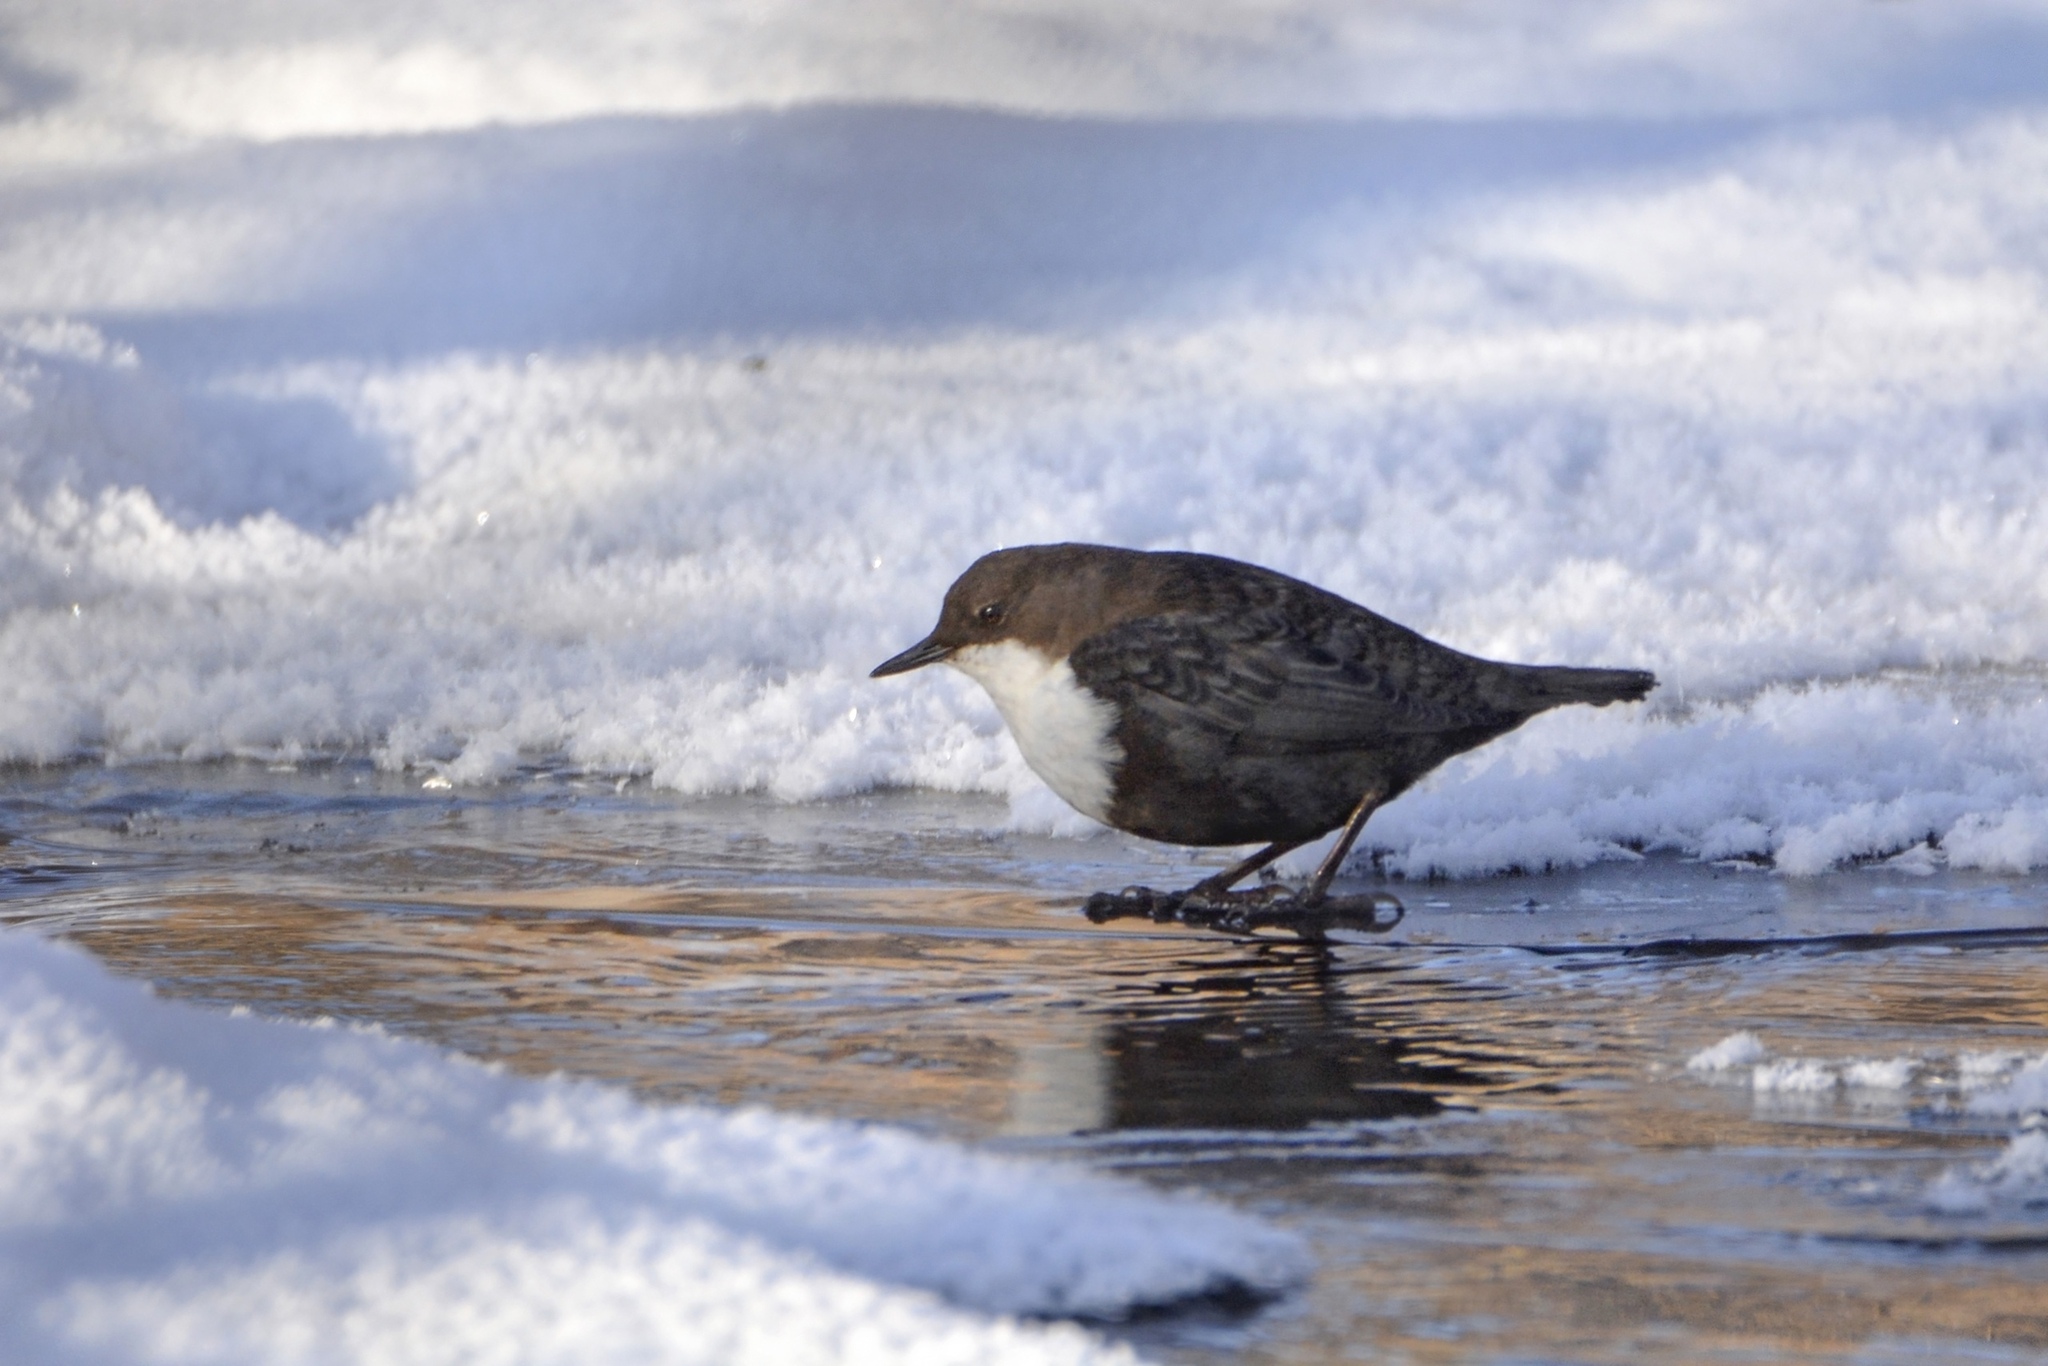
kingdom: Animalia
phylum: Chordata
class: Aves
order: Passeriformes
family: Cinclidae
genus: Cinclus
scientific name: Cinclus cinclus
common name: White-throated dipper
